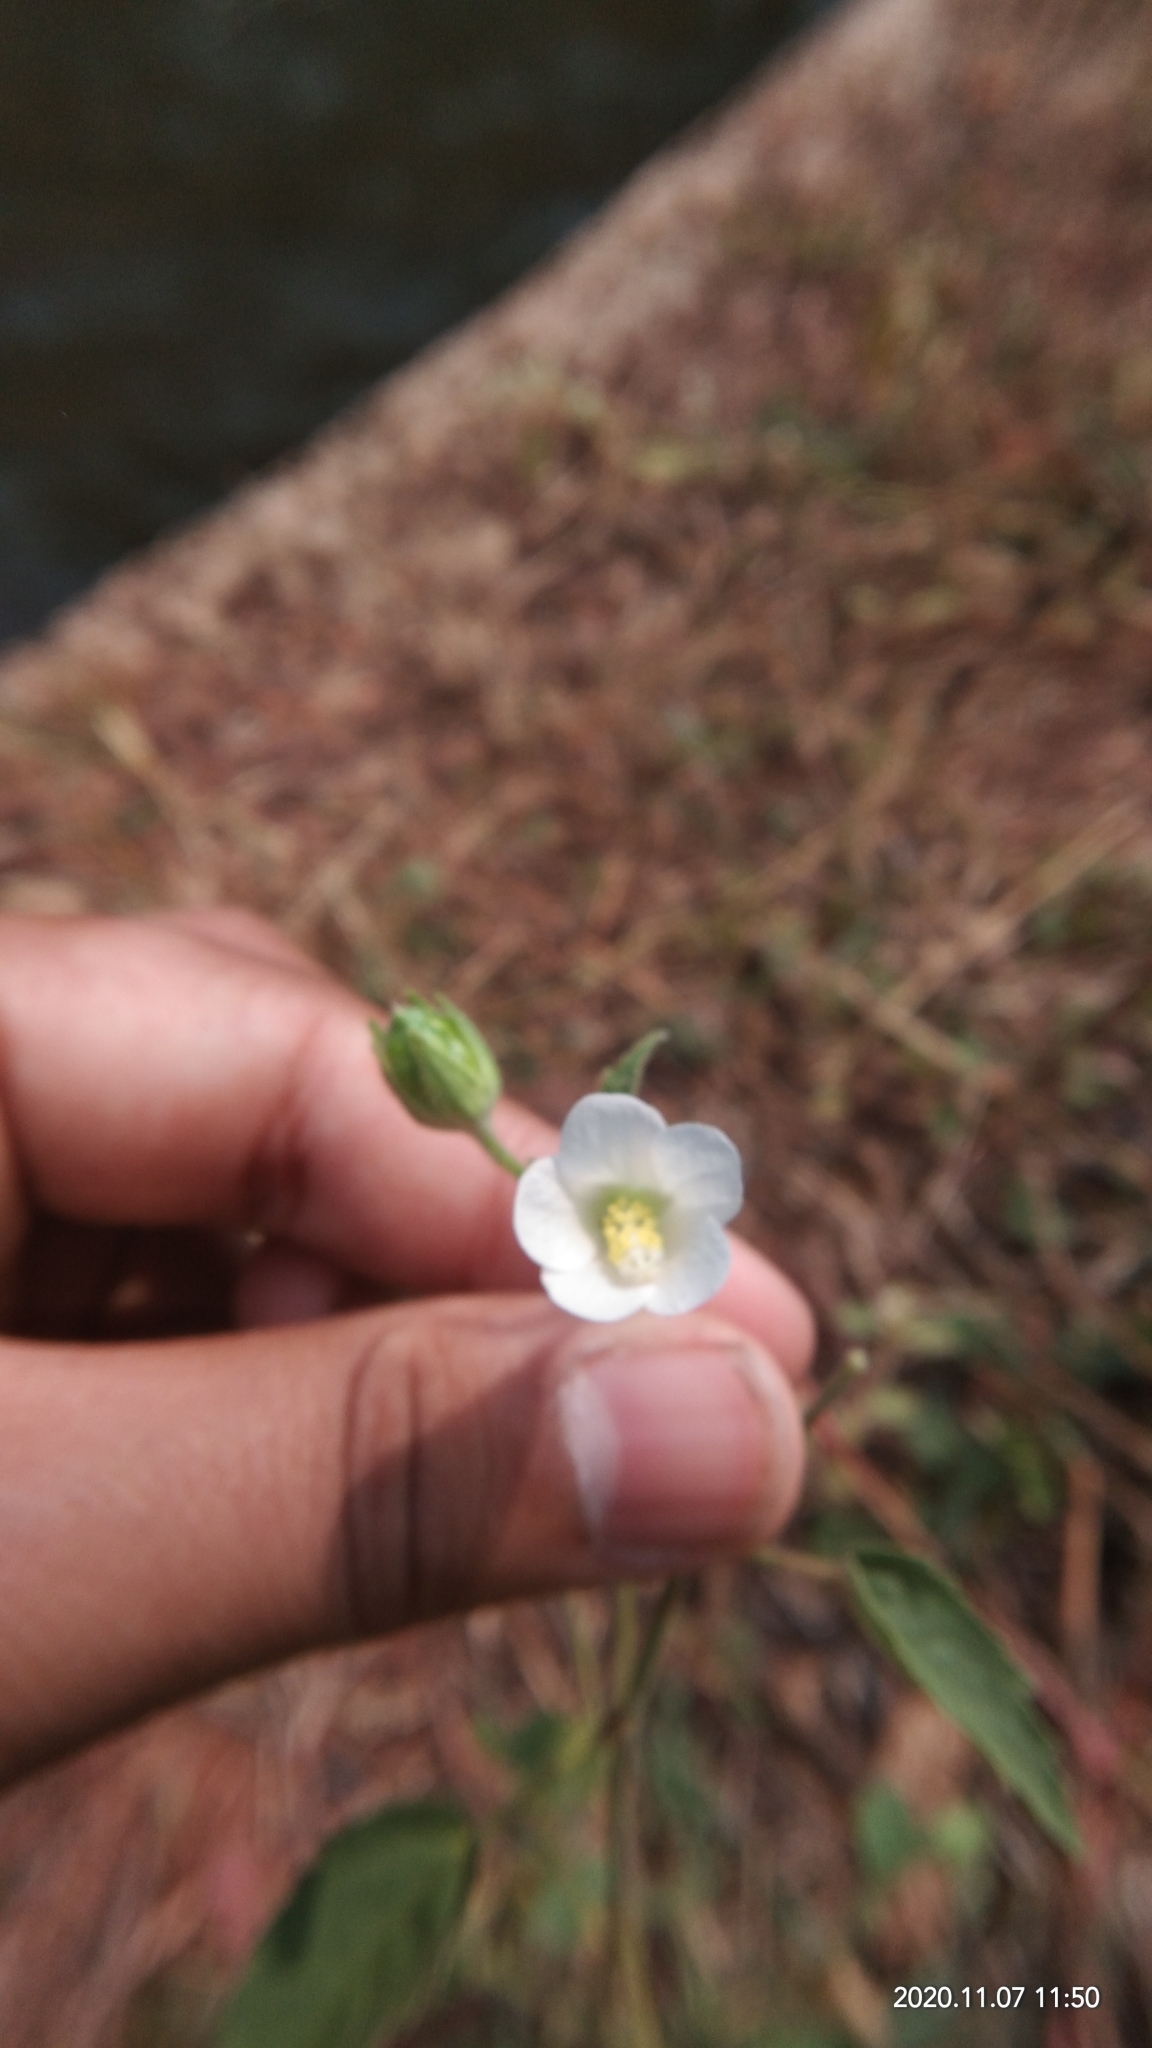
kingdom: Plantae
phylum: Tracheophyta
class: Magnoliopsida
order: Malvales
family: Malvaceae
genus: Hibiscus
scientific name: Hibiscus lobatus
